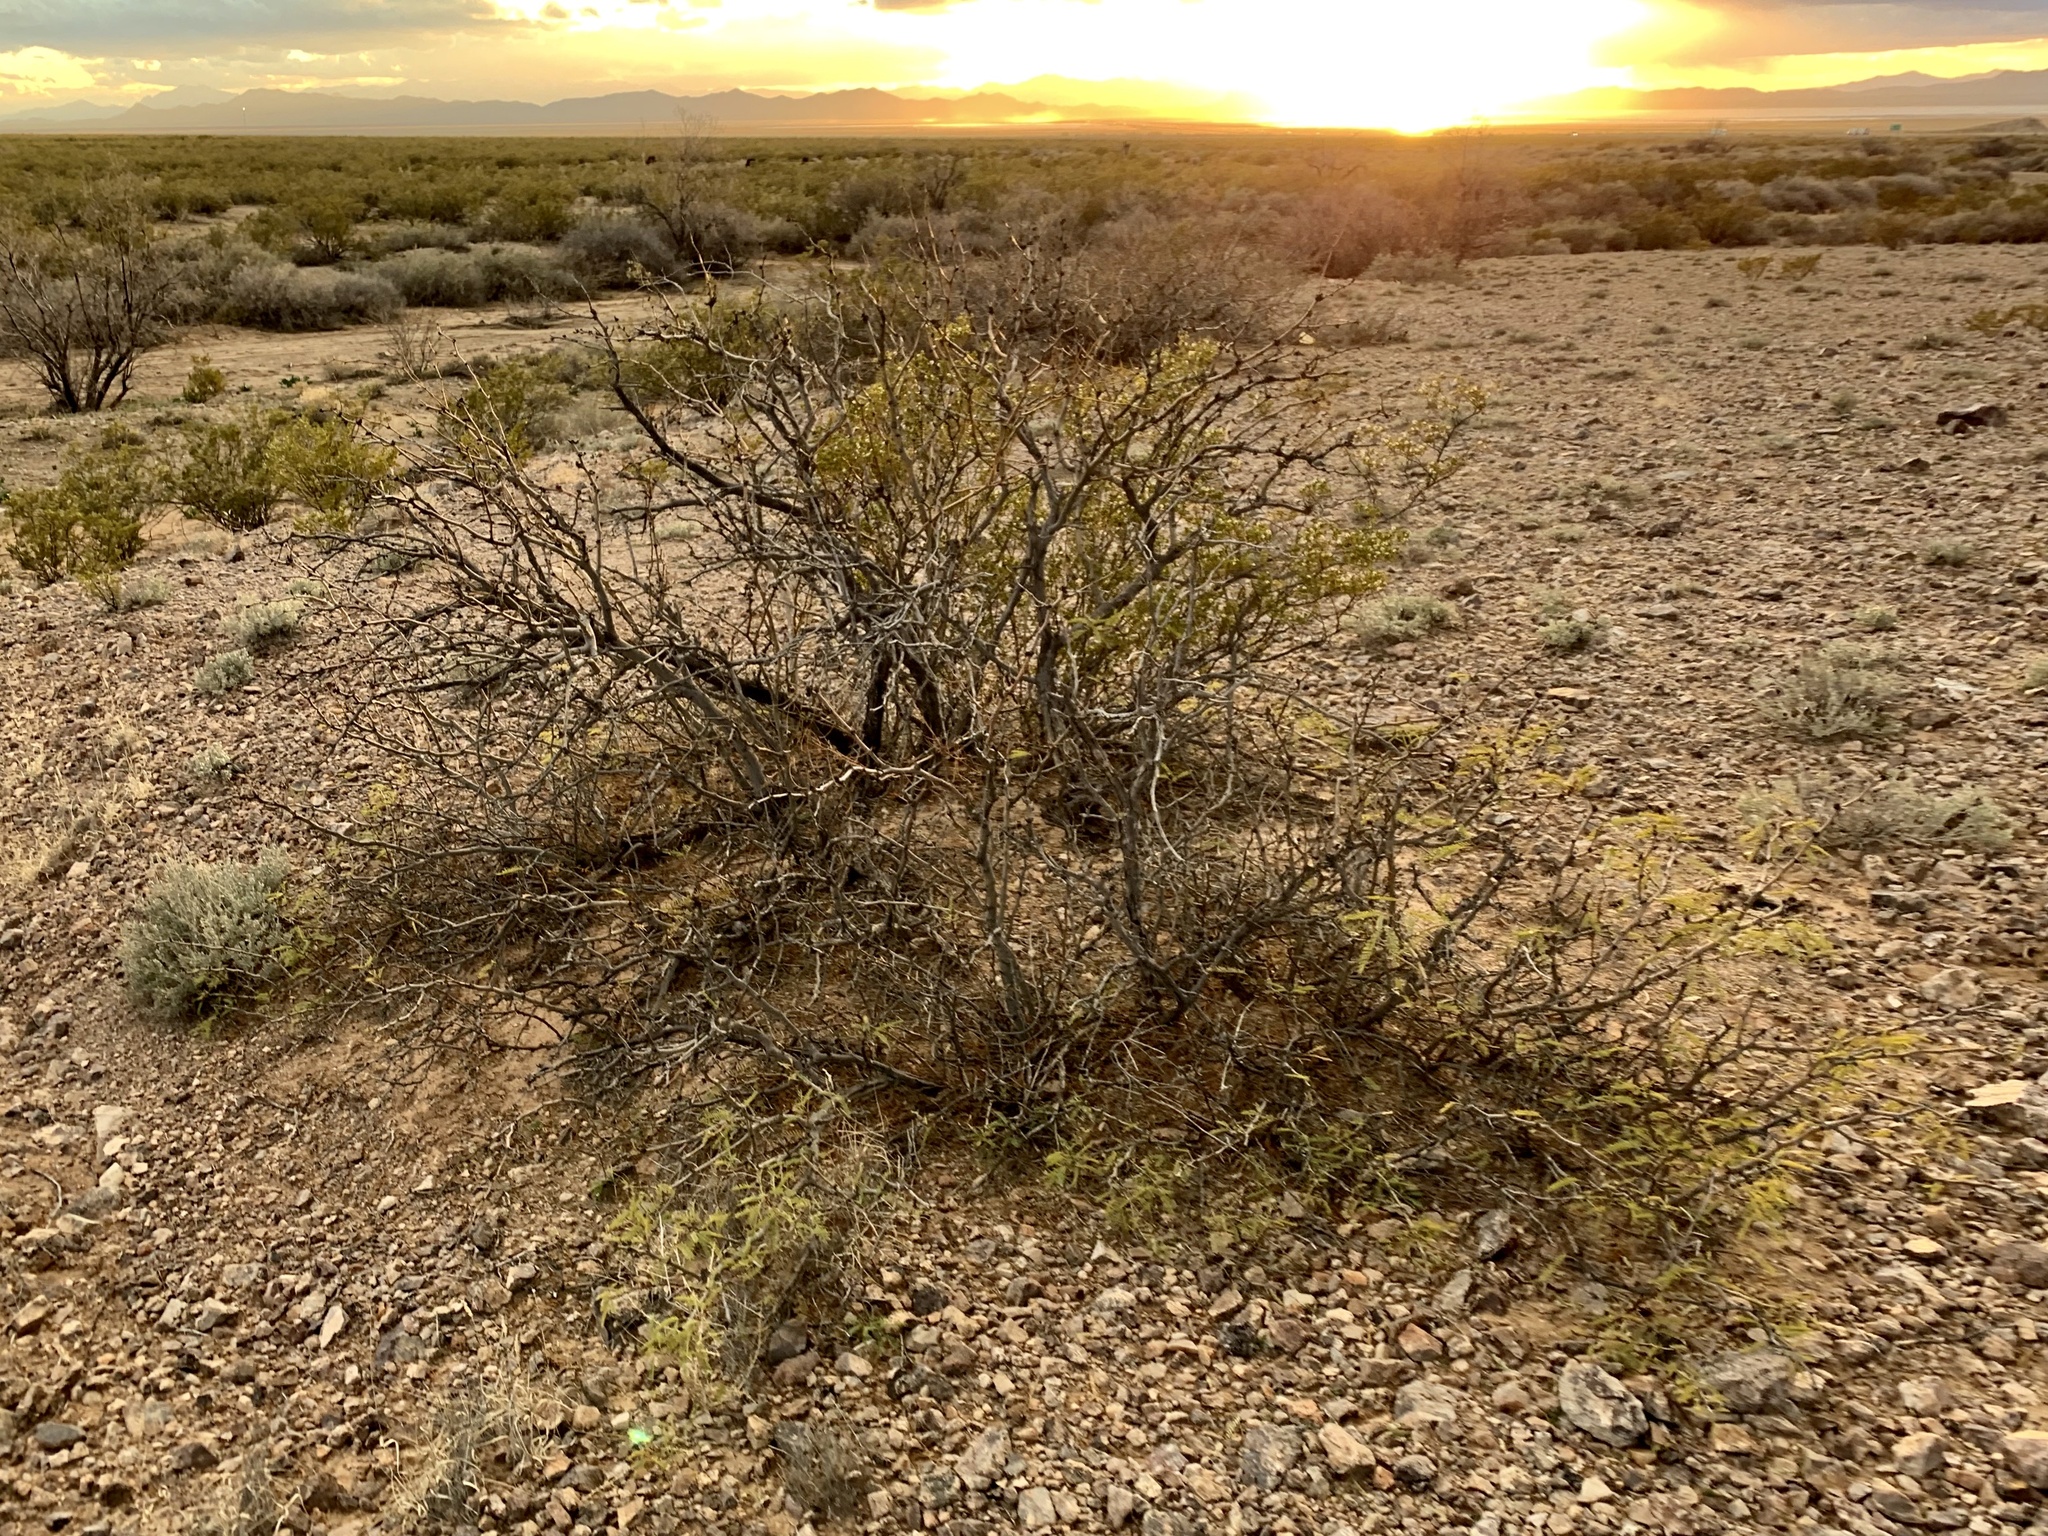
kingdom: Plantae
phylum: Tracheophyta
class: Magnoliopsida
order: Fabales
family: Fabaceae
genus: Prosopis
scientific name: Prosopis velutina
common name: Velvet mesquite
